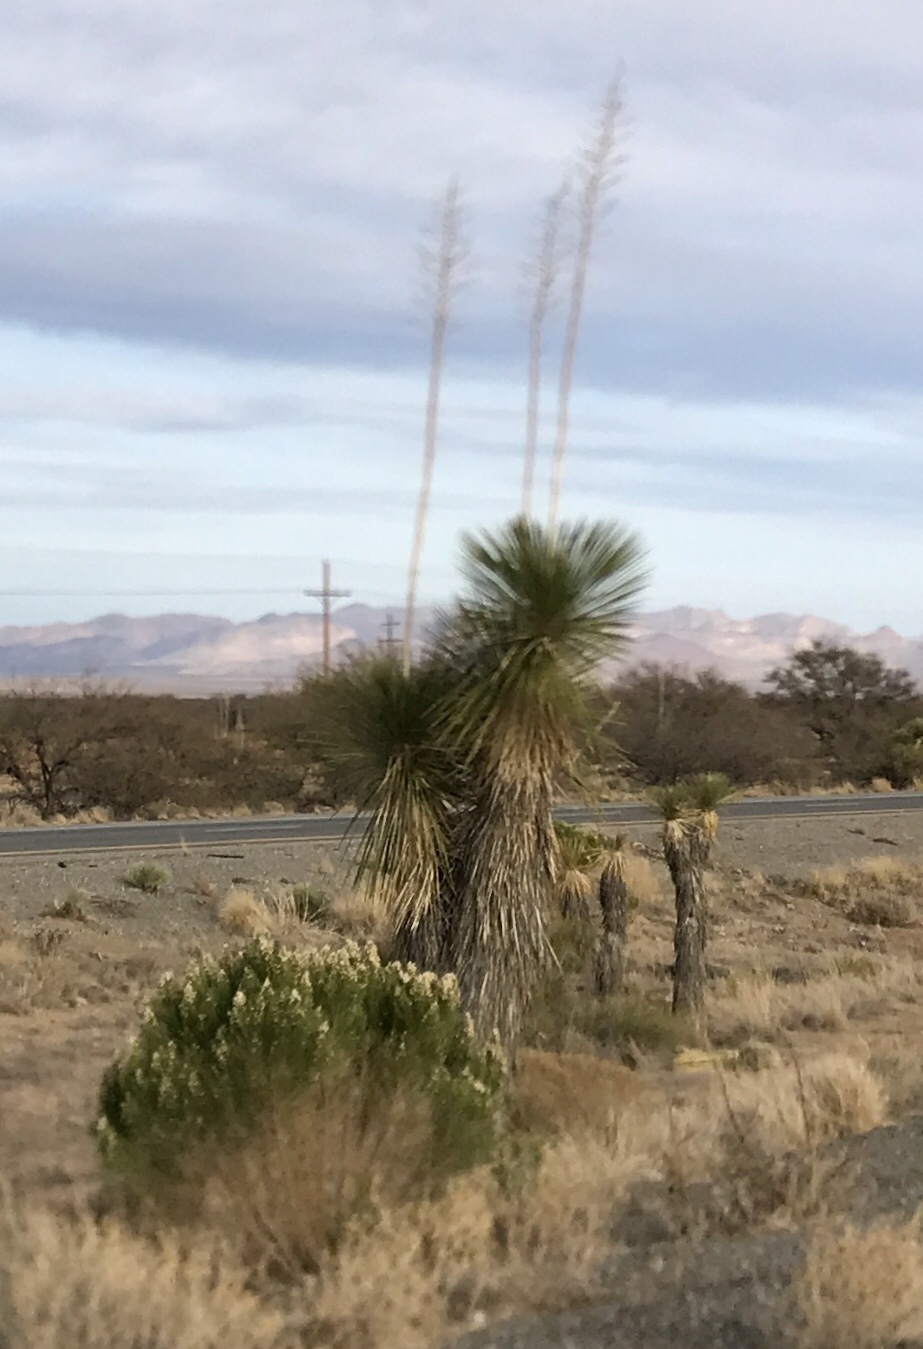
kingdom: Plantae
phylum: Tracheophyta
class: Liliopsida
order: Asparagales
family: Asparagaceae
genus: Yucca
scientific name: Yucca elata
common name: Palmella
